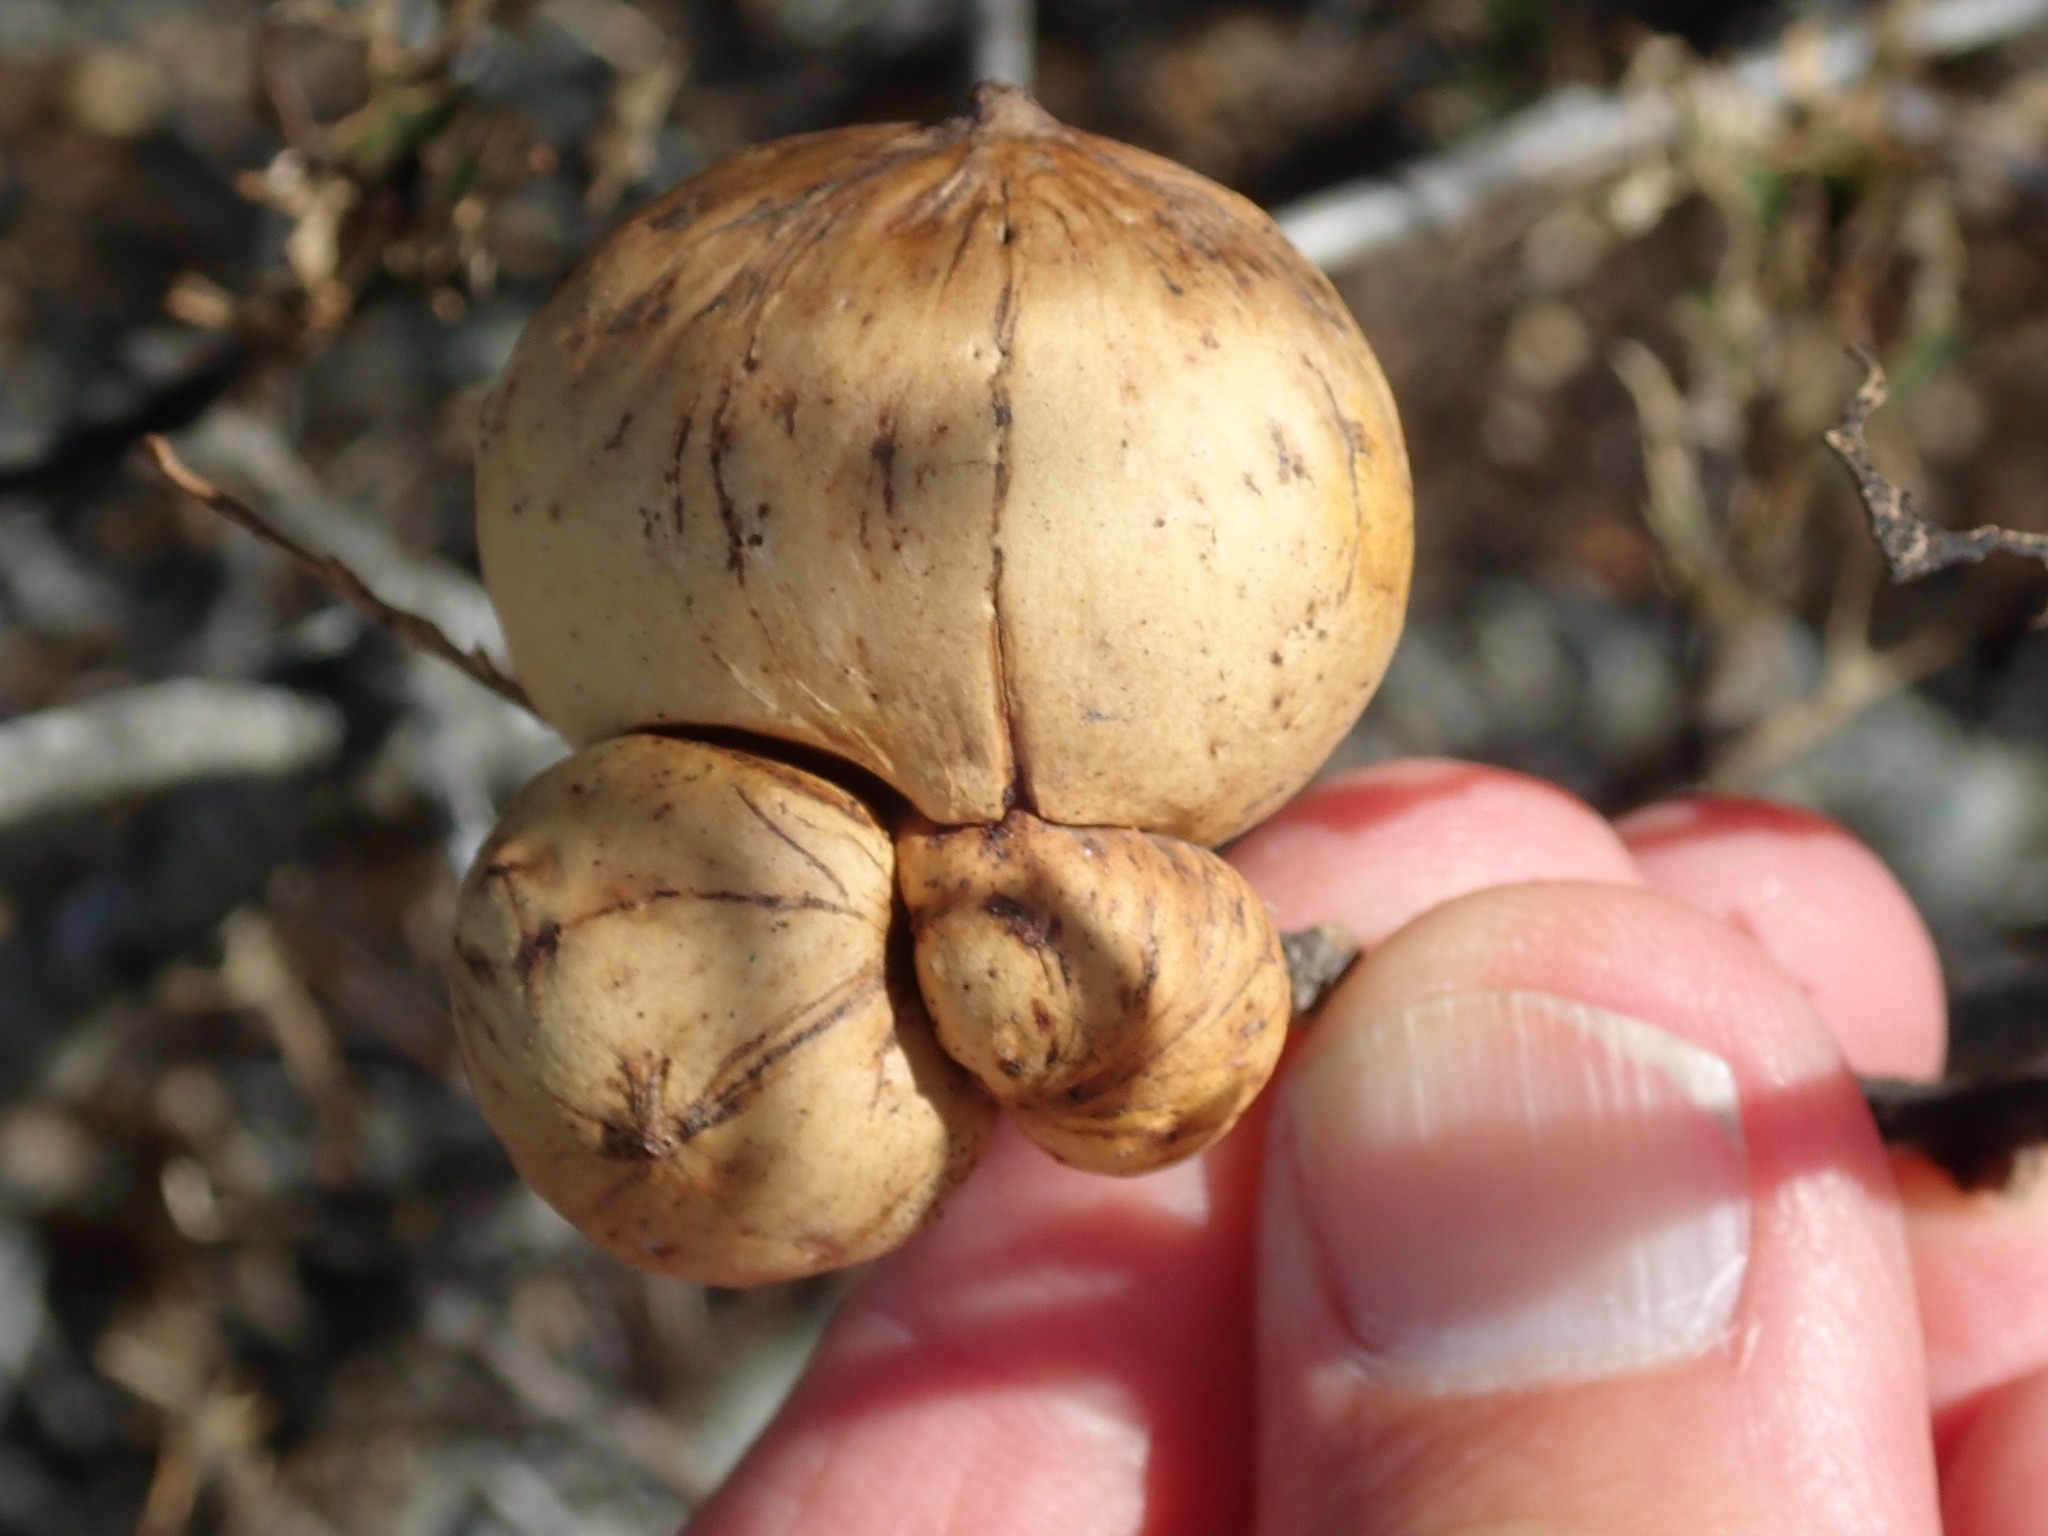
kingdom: Animalia
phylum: Arthropoda
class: Insecta
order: Hymenoptera
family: Cynipidae
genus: Andricus
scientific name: Andricus quercuscalifornicus
